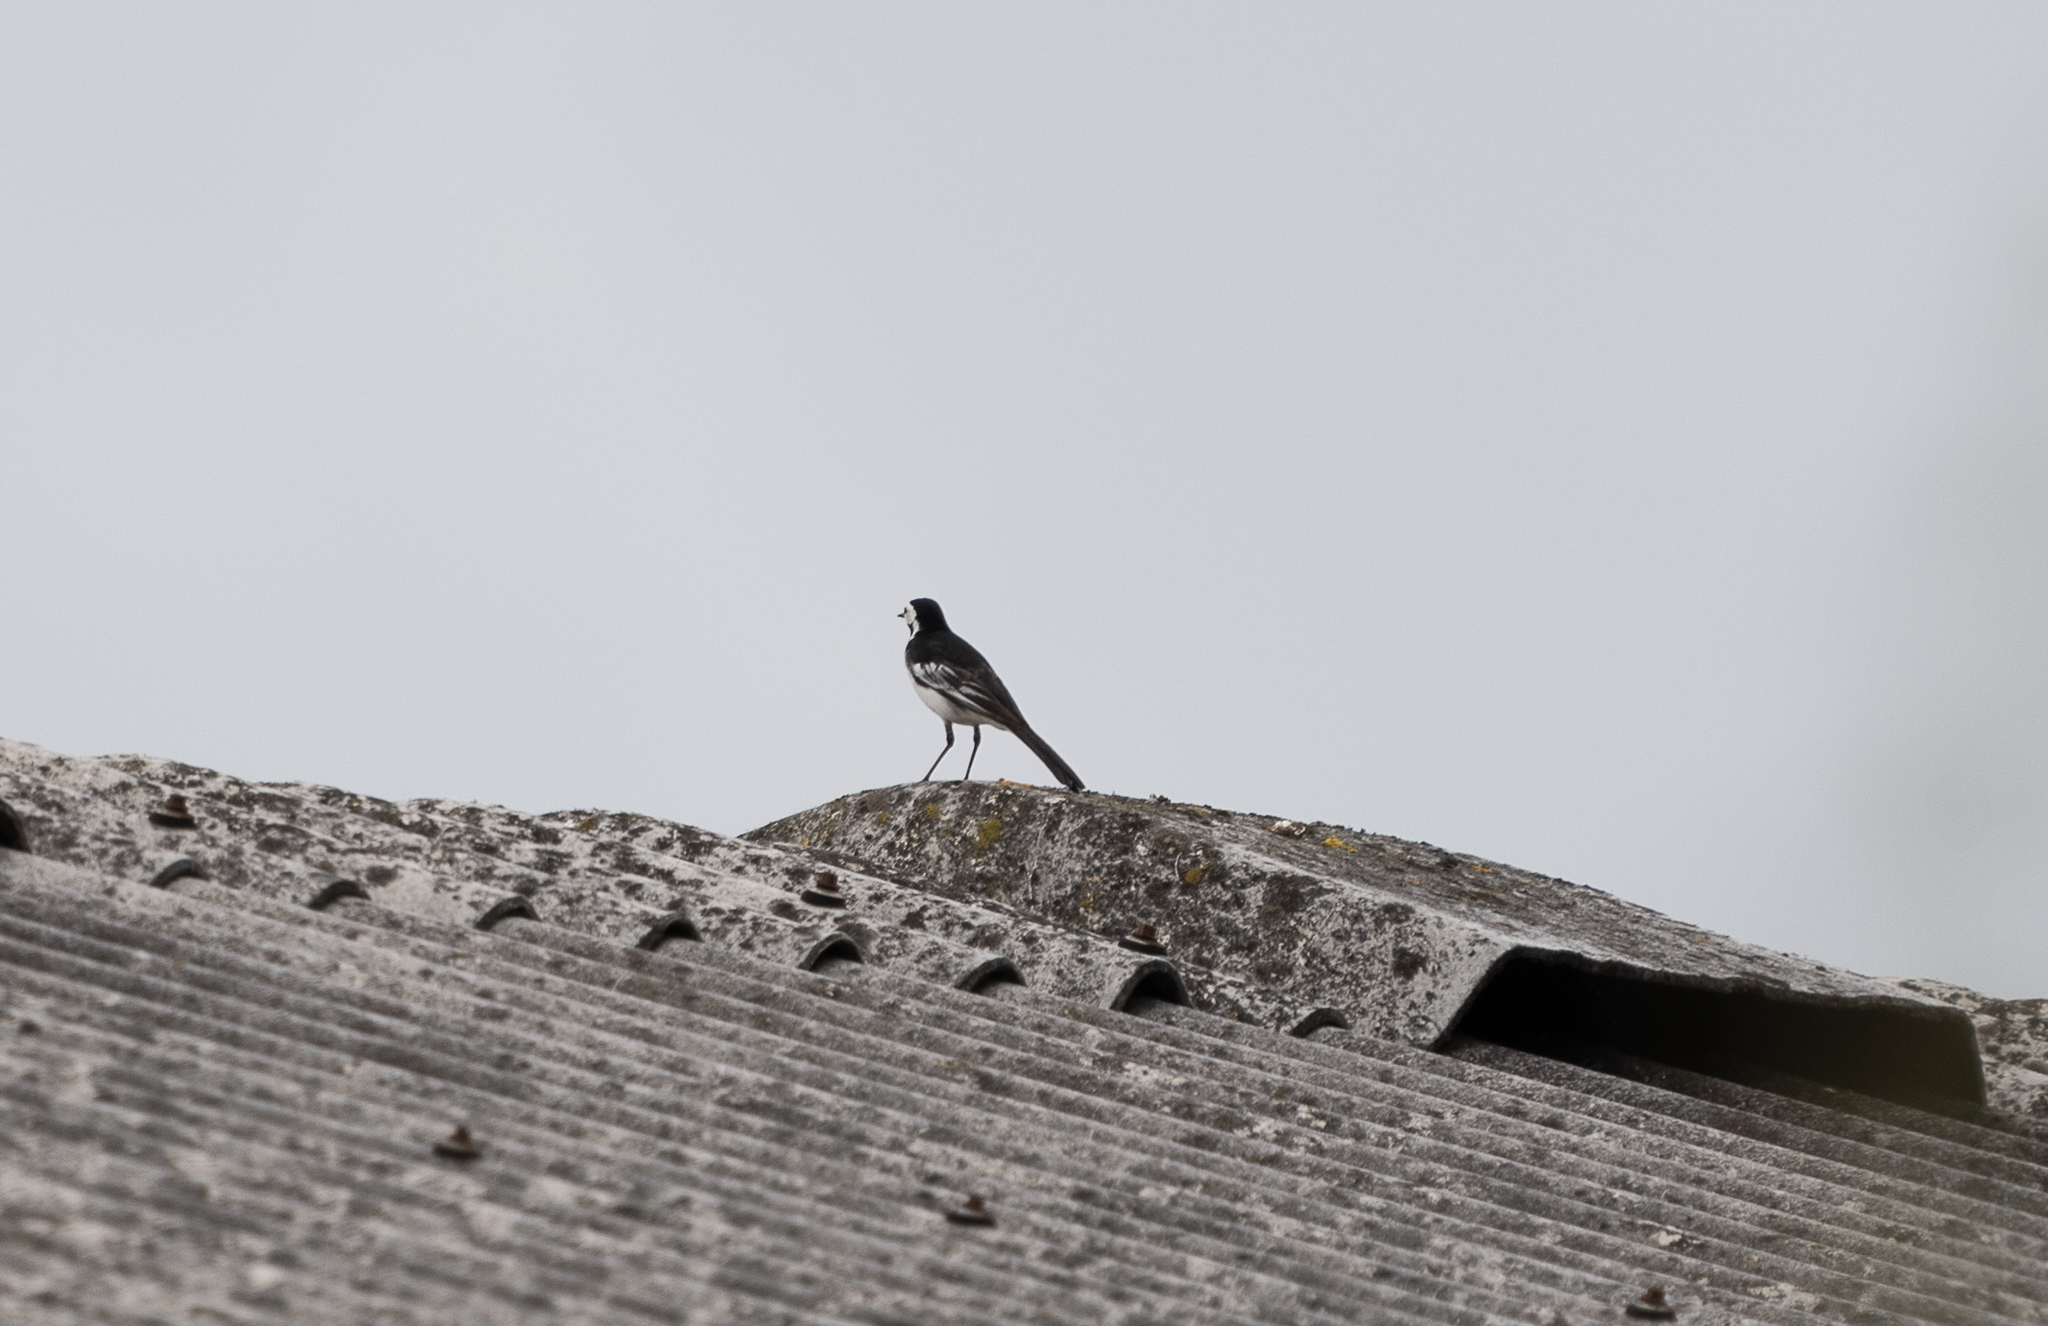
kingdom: Animalia
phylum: Chordata
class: Aves
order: Passeriformes
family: Motacillidae
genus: Motacilla
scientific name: Motacilla alba
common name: White wagtail
